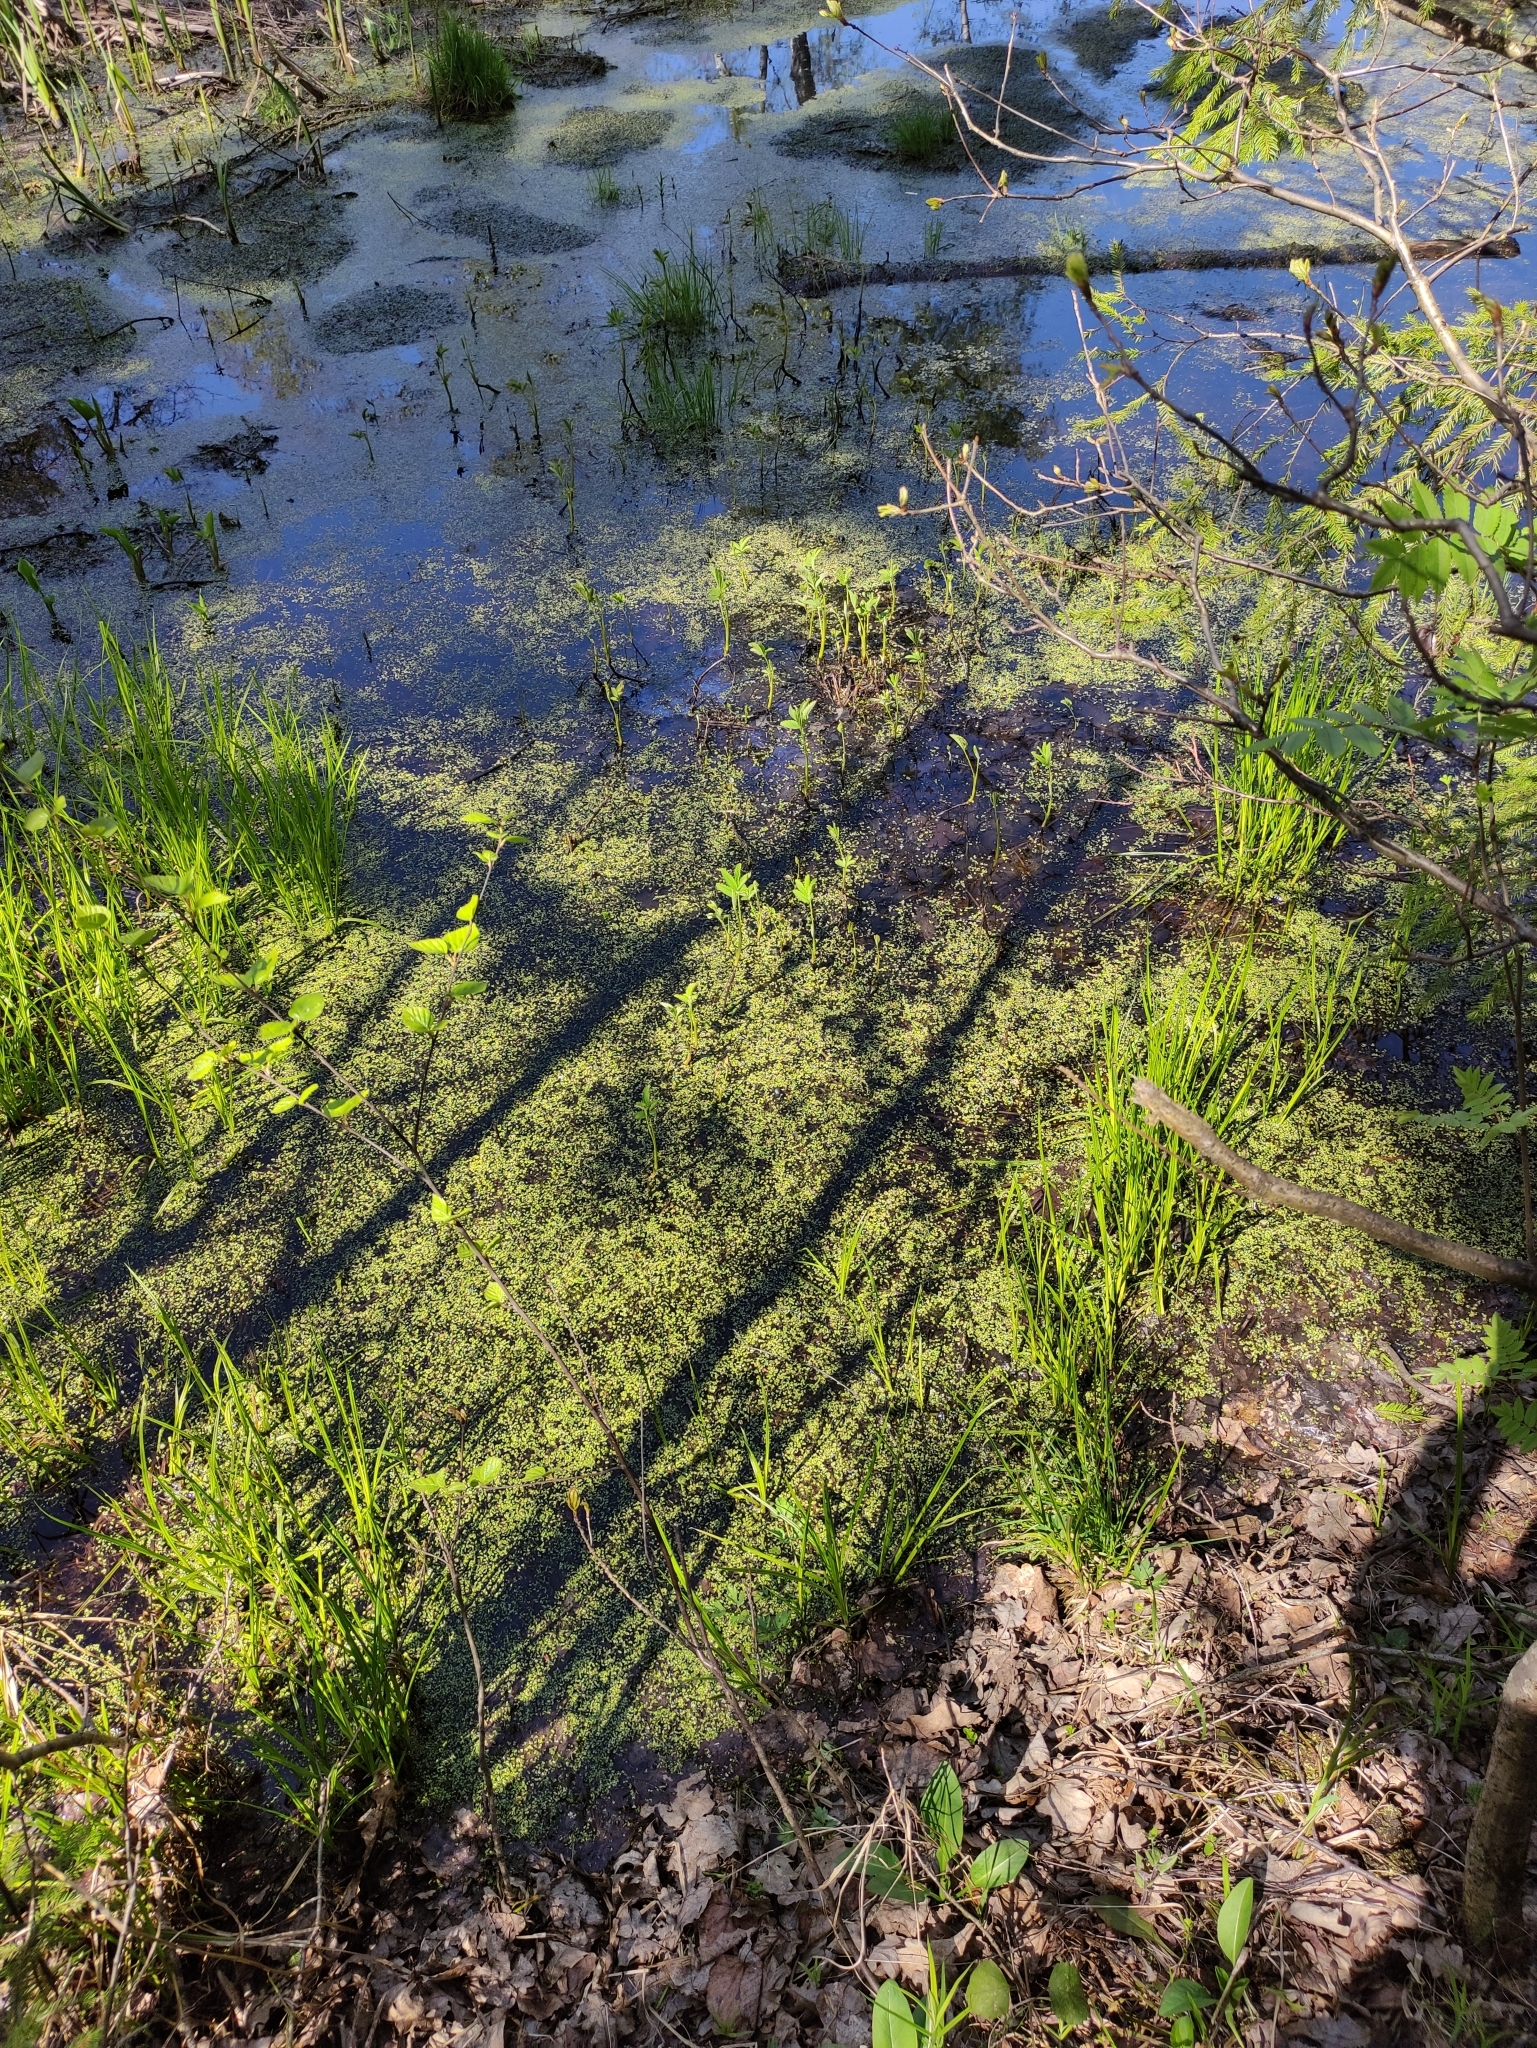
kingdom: Plantae
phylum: Tracheophyta
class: Magnoliopsida
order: Rosales
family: Rosaceae
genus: Comarum
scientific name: Comarum palustre
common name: Marsh cinquefoil
